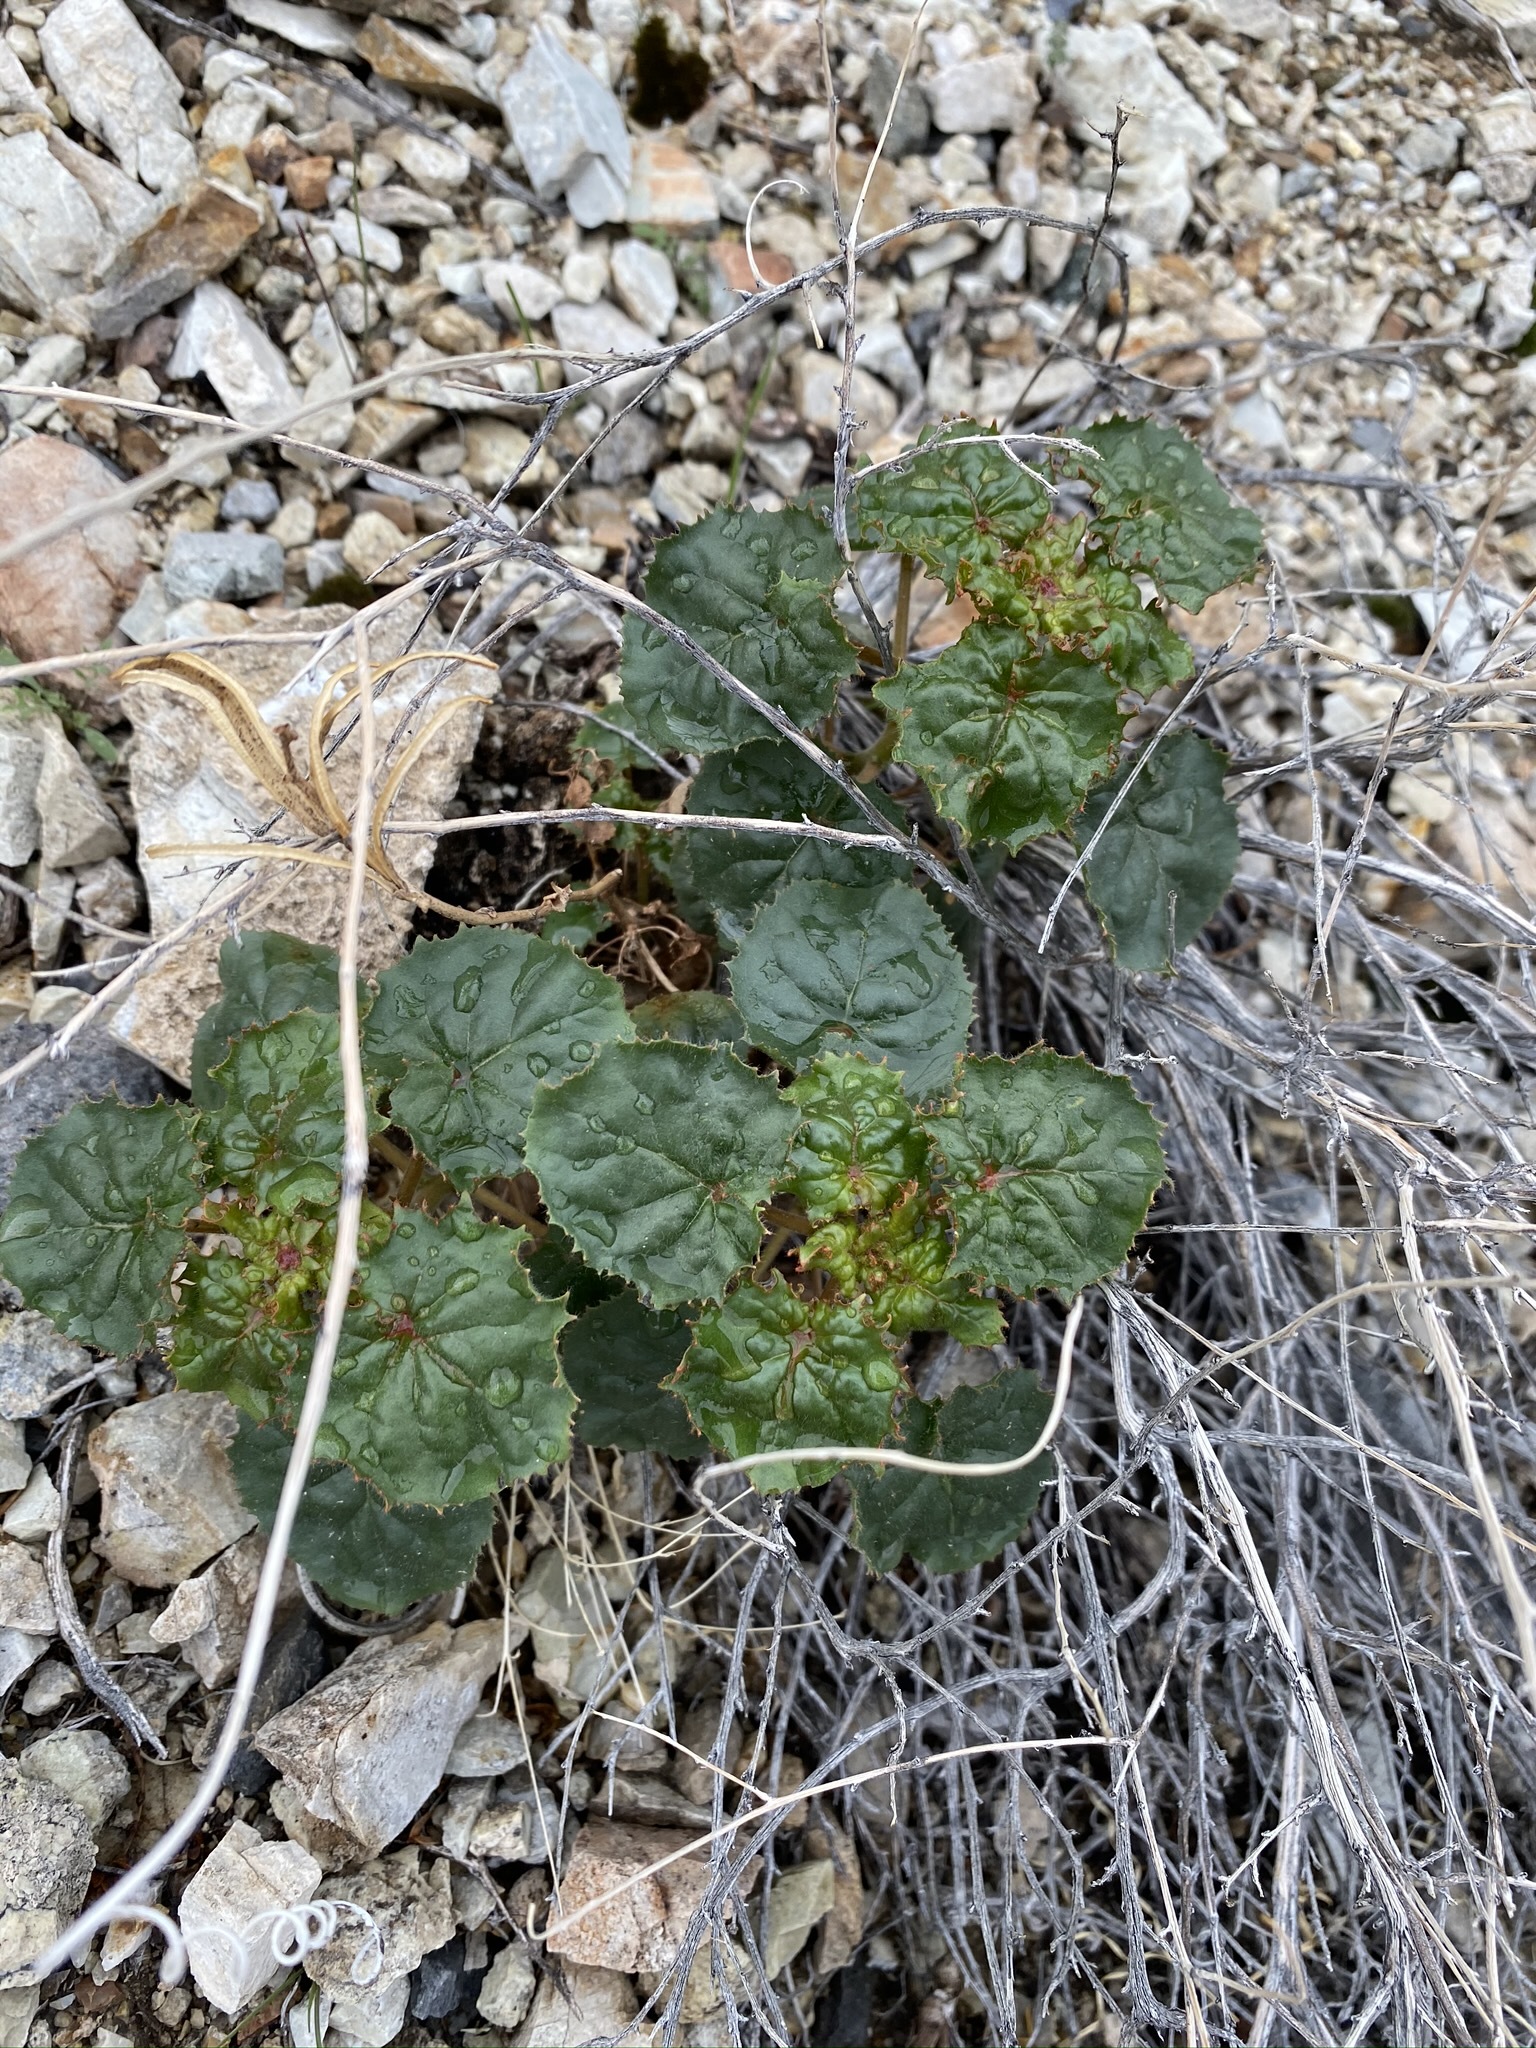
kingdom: Plantae
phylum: Tracheophyta
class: Magnoliopsida
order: Myrtales
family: Onagraceae
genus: Chylismia
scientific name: Chylismia cardiophylla
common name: Heartleaf suncup
